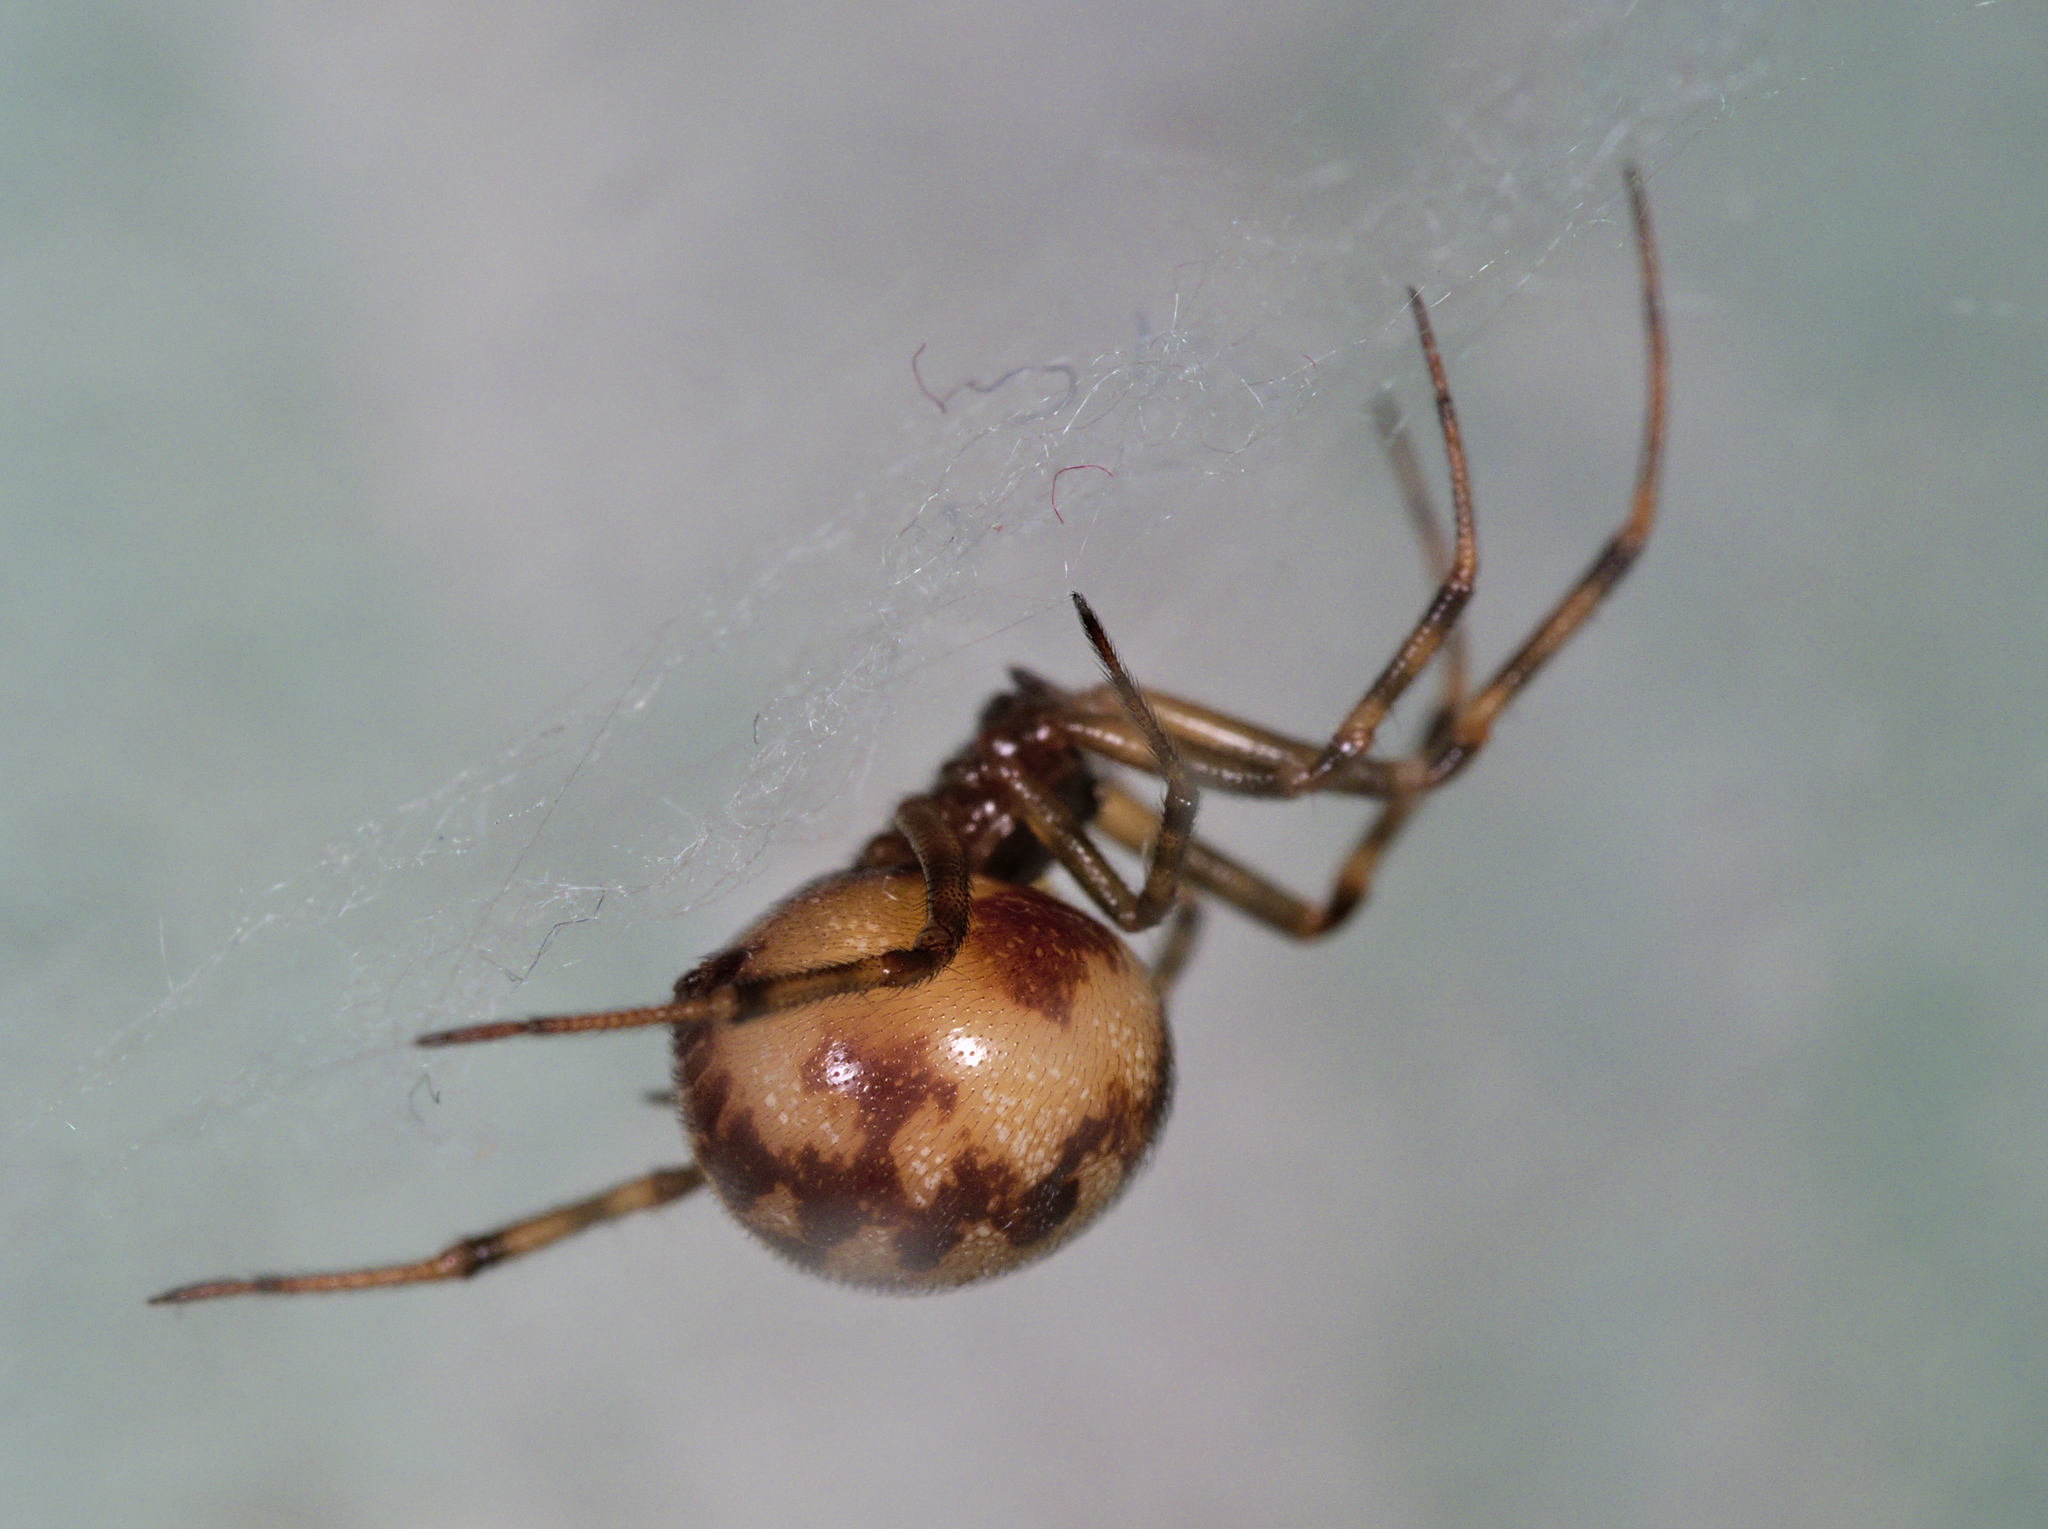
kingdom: Animalia
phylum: Arthropoda
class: Arachnida
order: Araneae
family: Theridiidae
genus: Steatoda
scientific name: Steatoda triangulosa
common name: Triangulate bud spider
